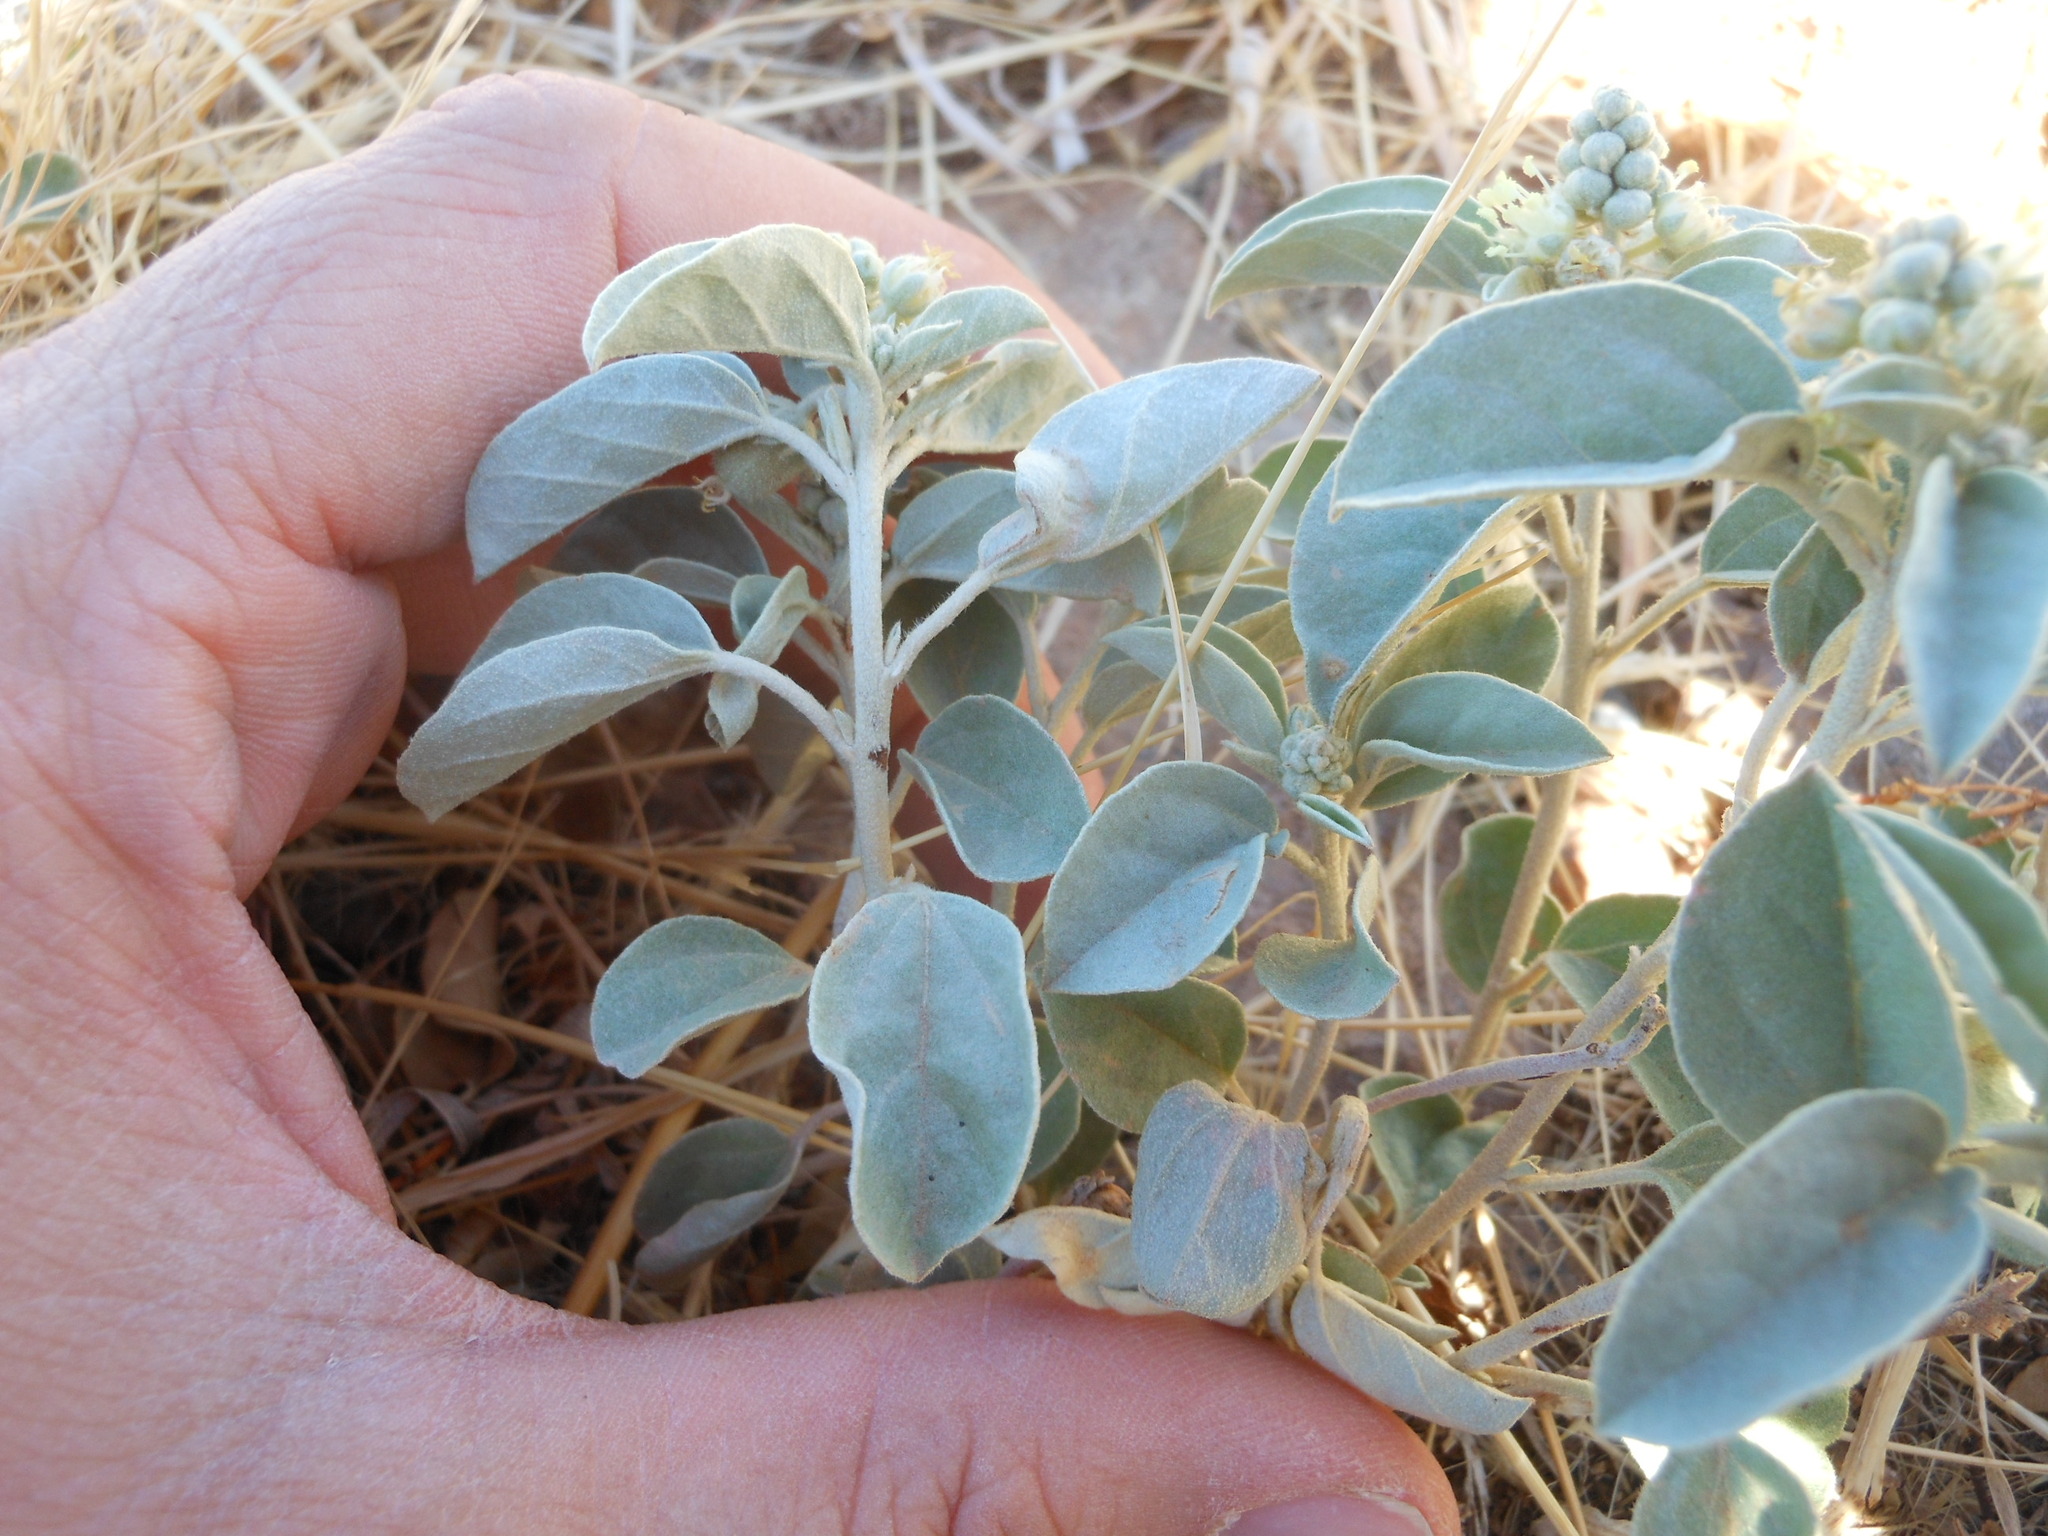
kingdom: Plantae
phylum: Tracheophyta
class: Magnoliopsida
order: Malpighiales
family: Euphorbiaceae
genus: Croton
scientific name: Croton pottsii
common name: Leatherweed
